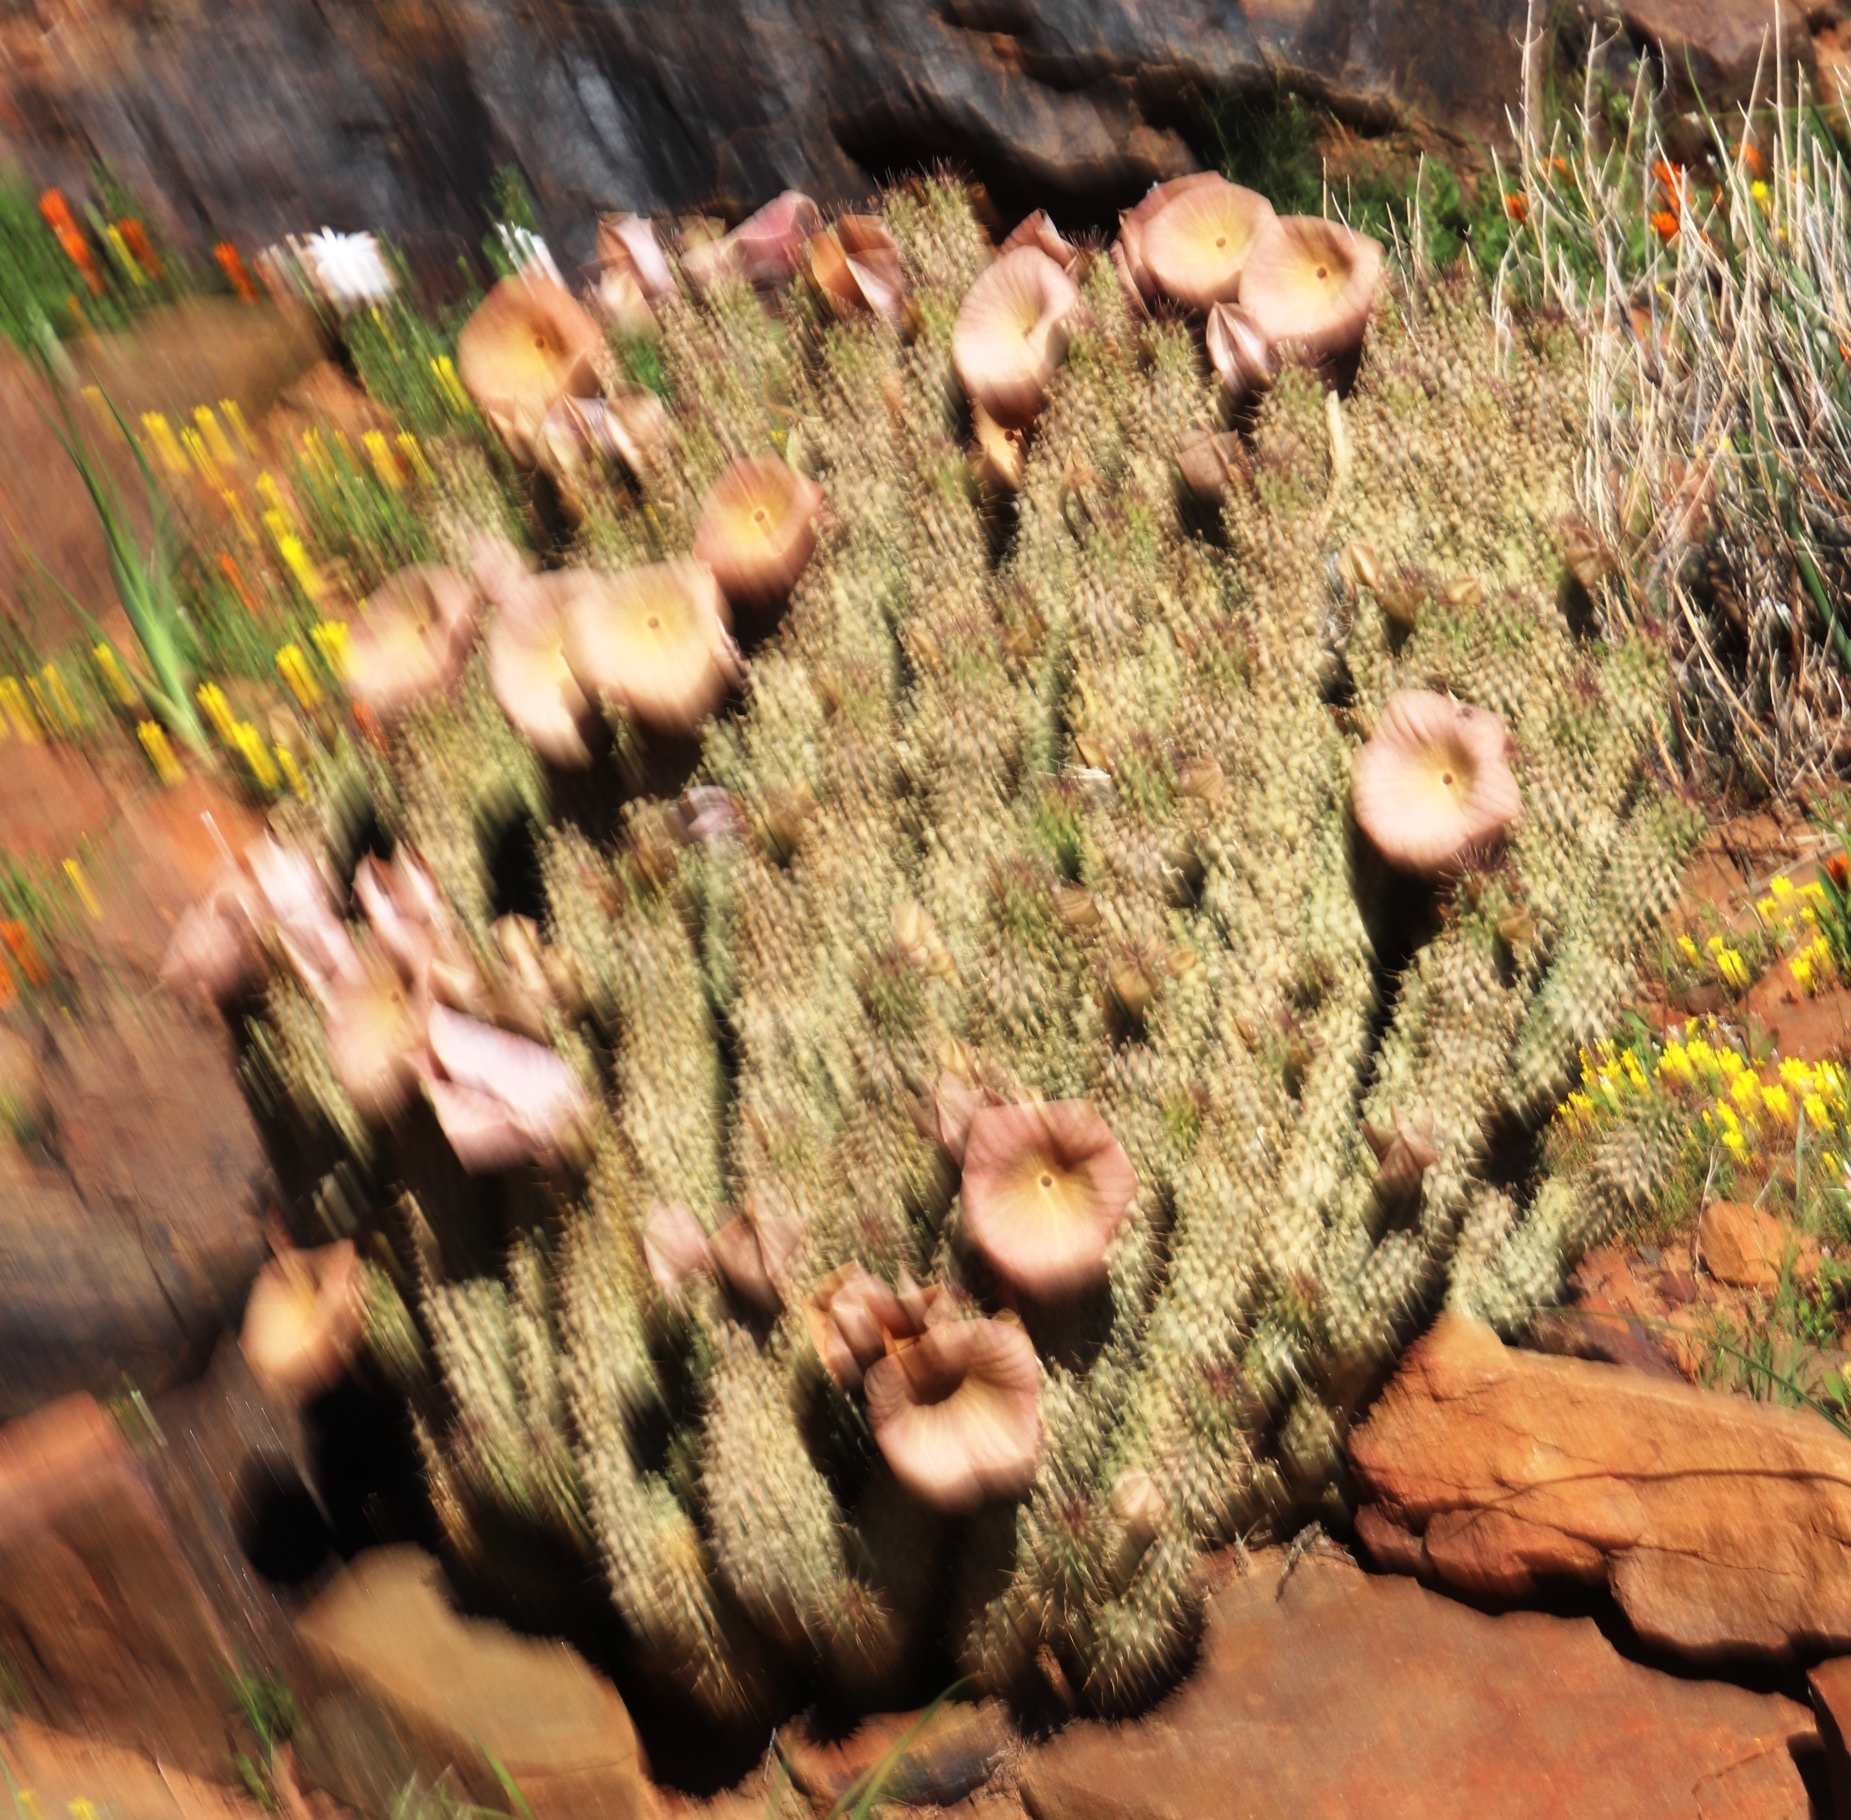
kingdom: Plantae
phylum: Tracheophyta
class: Magnoliopsida
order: Gentianales
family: Apocynaceae
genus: Hoodia
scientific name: Hoodia gordonii
